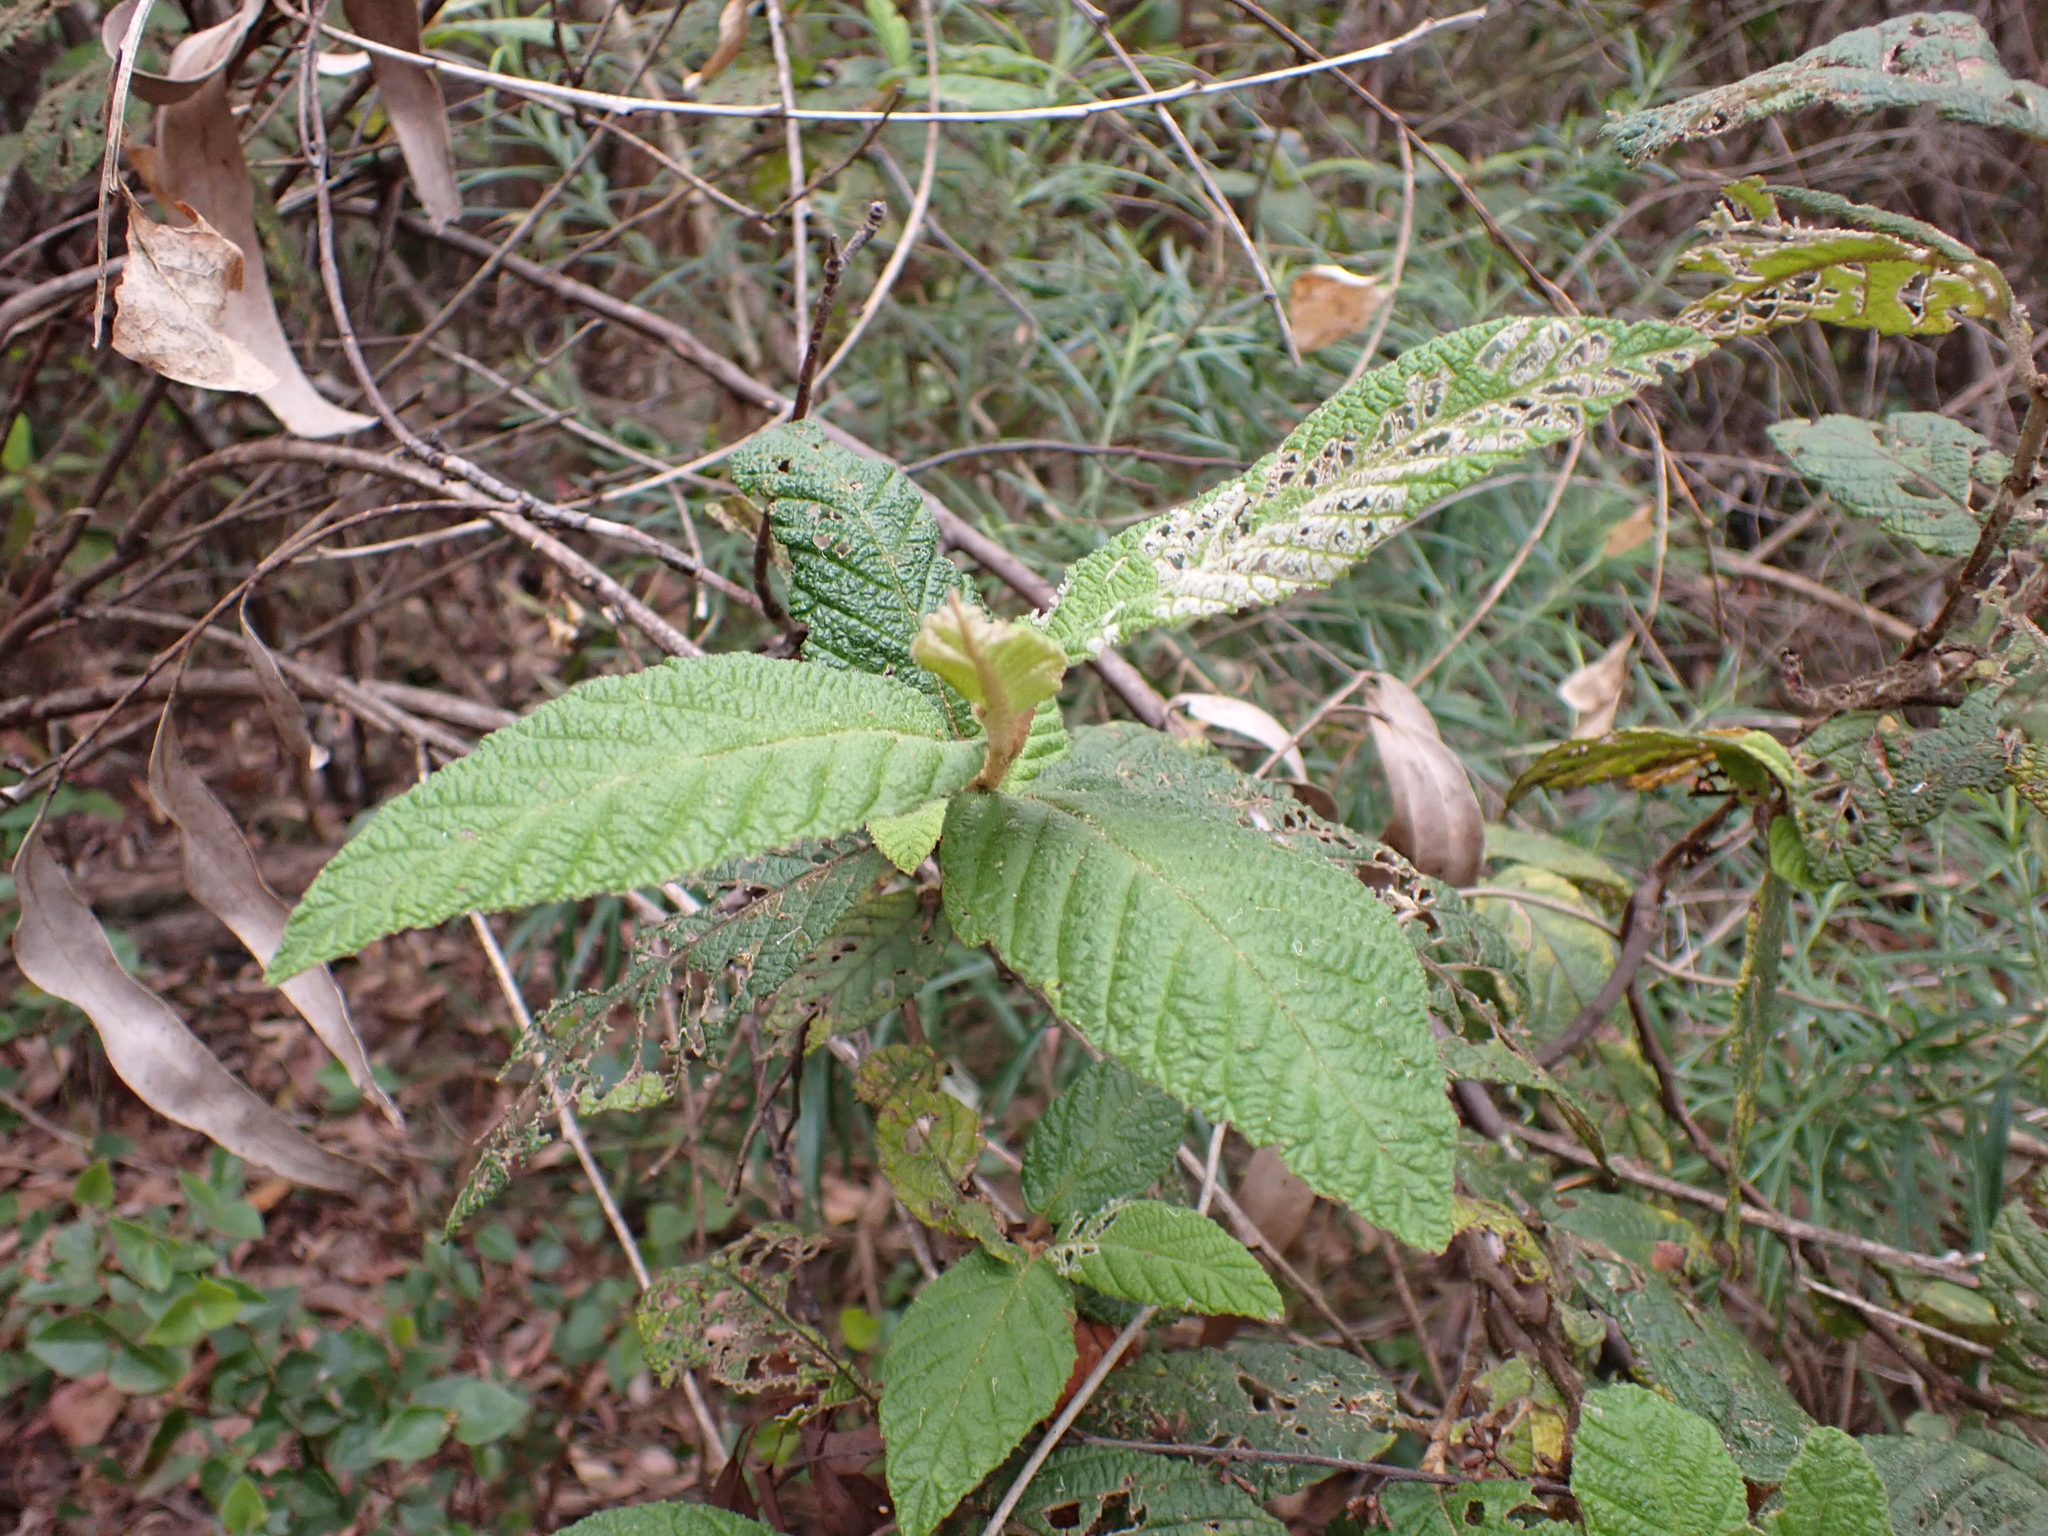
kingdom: Plantae
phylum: Tracheophyta
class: Magnoliopsida
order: Rosales
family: Rhamnaceae
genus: Pomaderris
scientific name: Pomaderris aspera
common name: Hazel pomaderris
